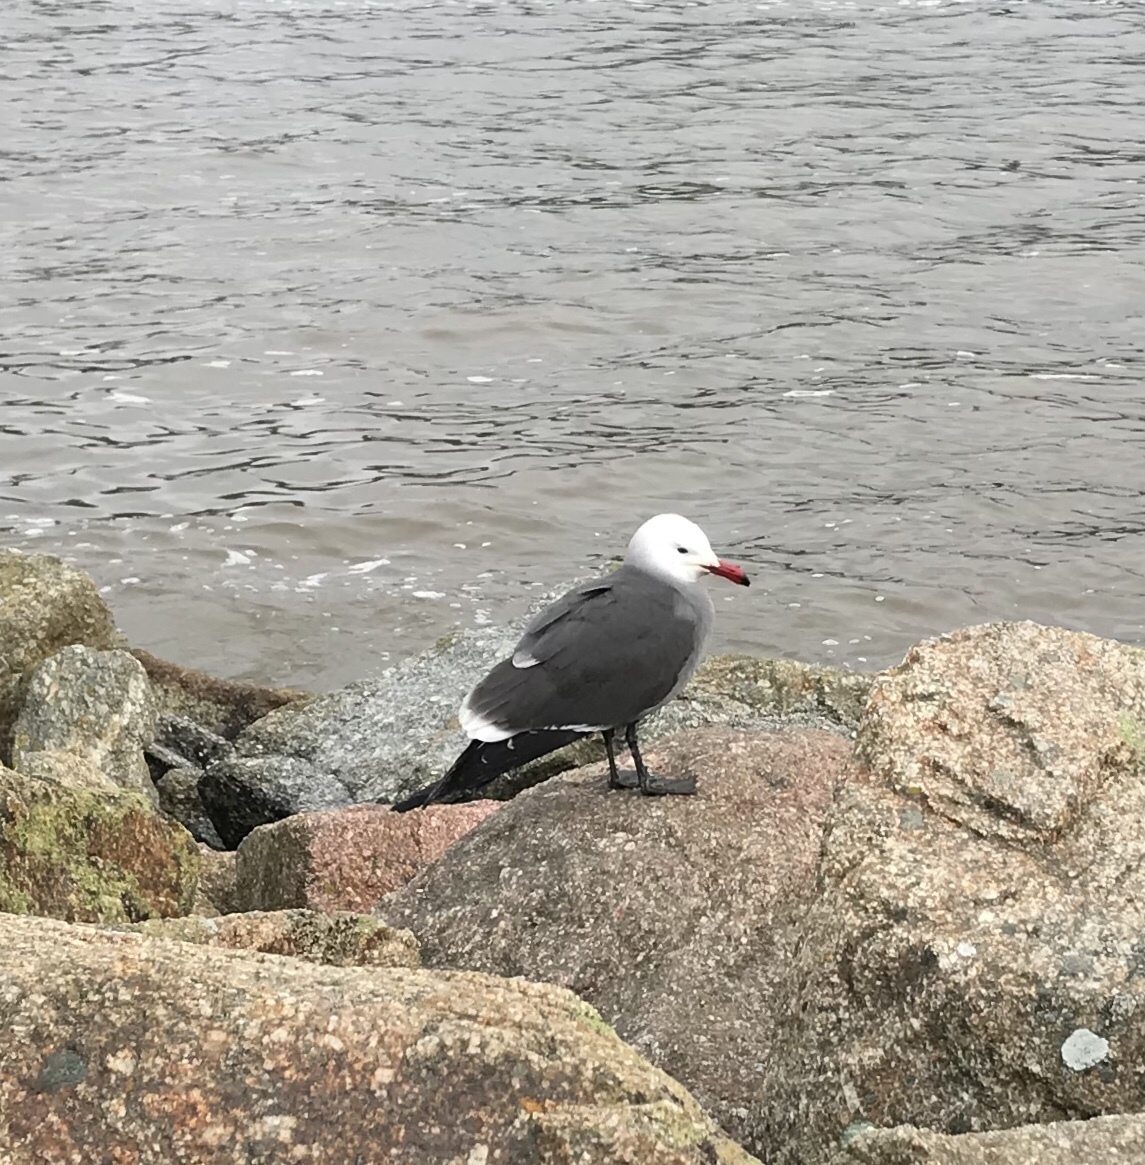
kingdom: Animalia
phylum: Chordata
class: Aves
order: Charadriiformes
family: Laridae
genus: Larus
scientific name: Larus heermanni
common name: Heermann's gull
